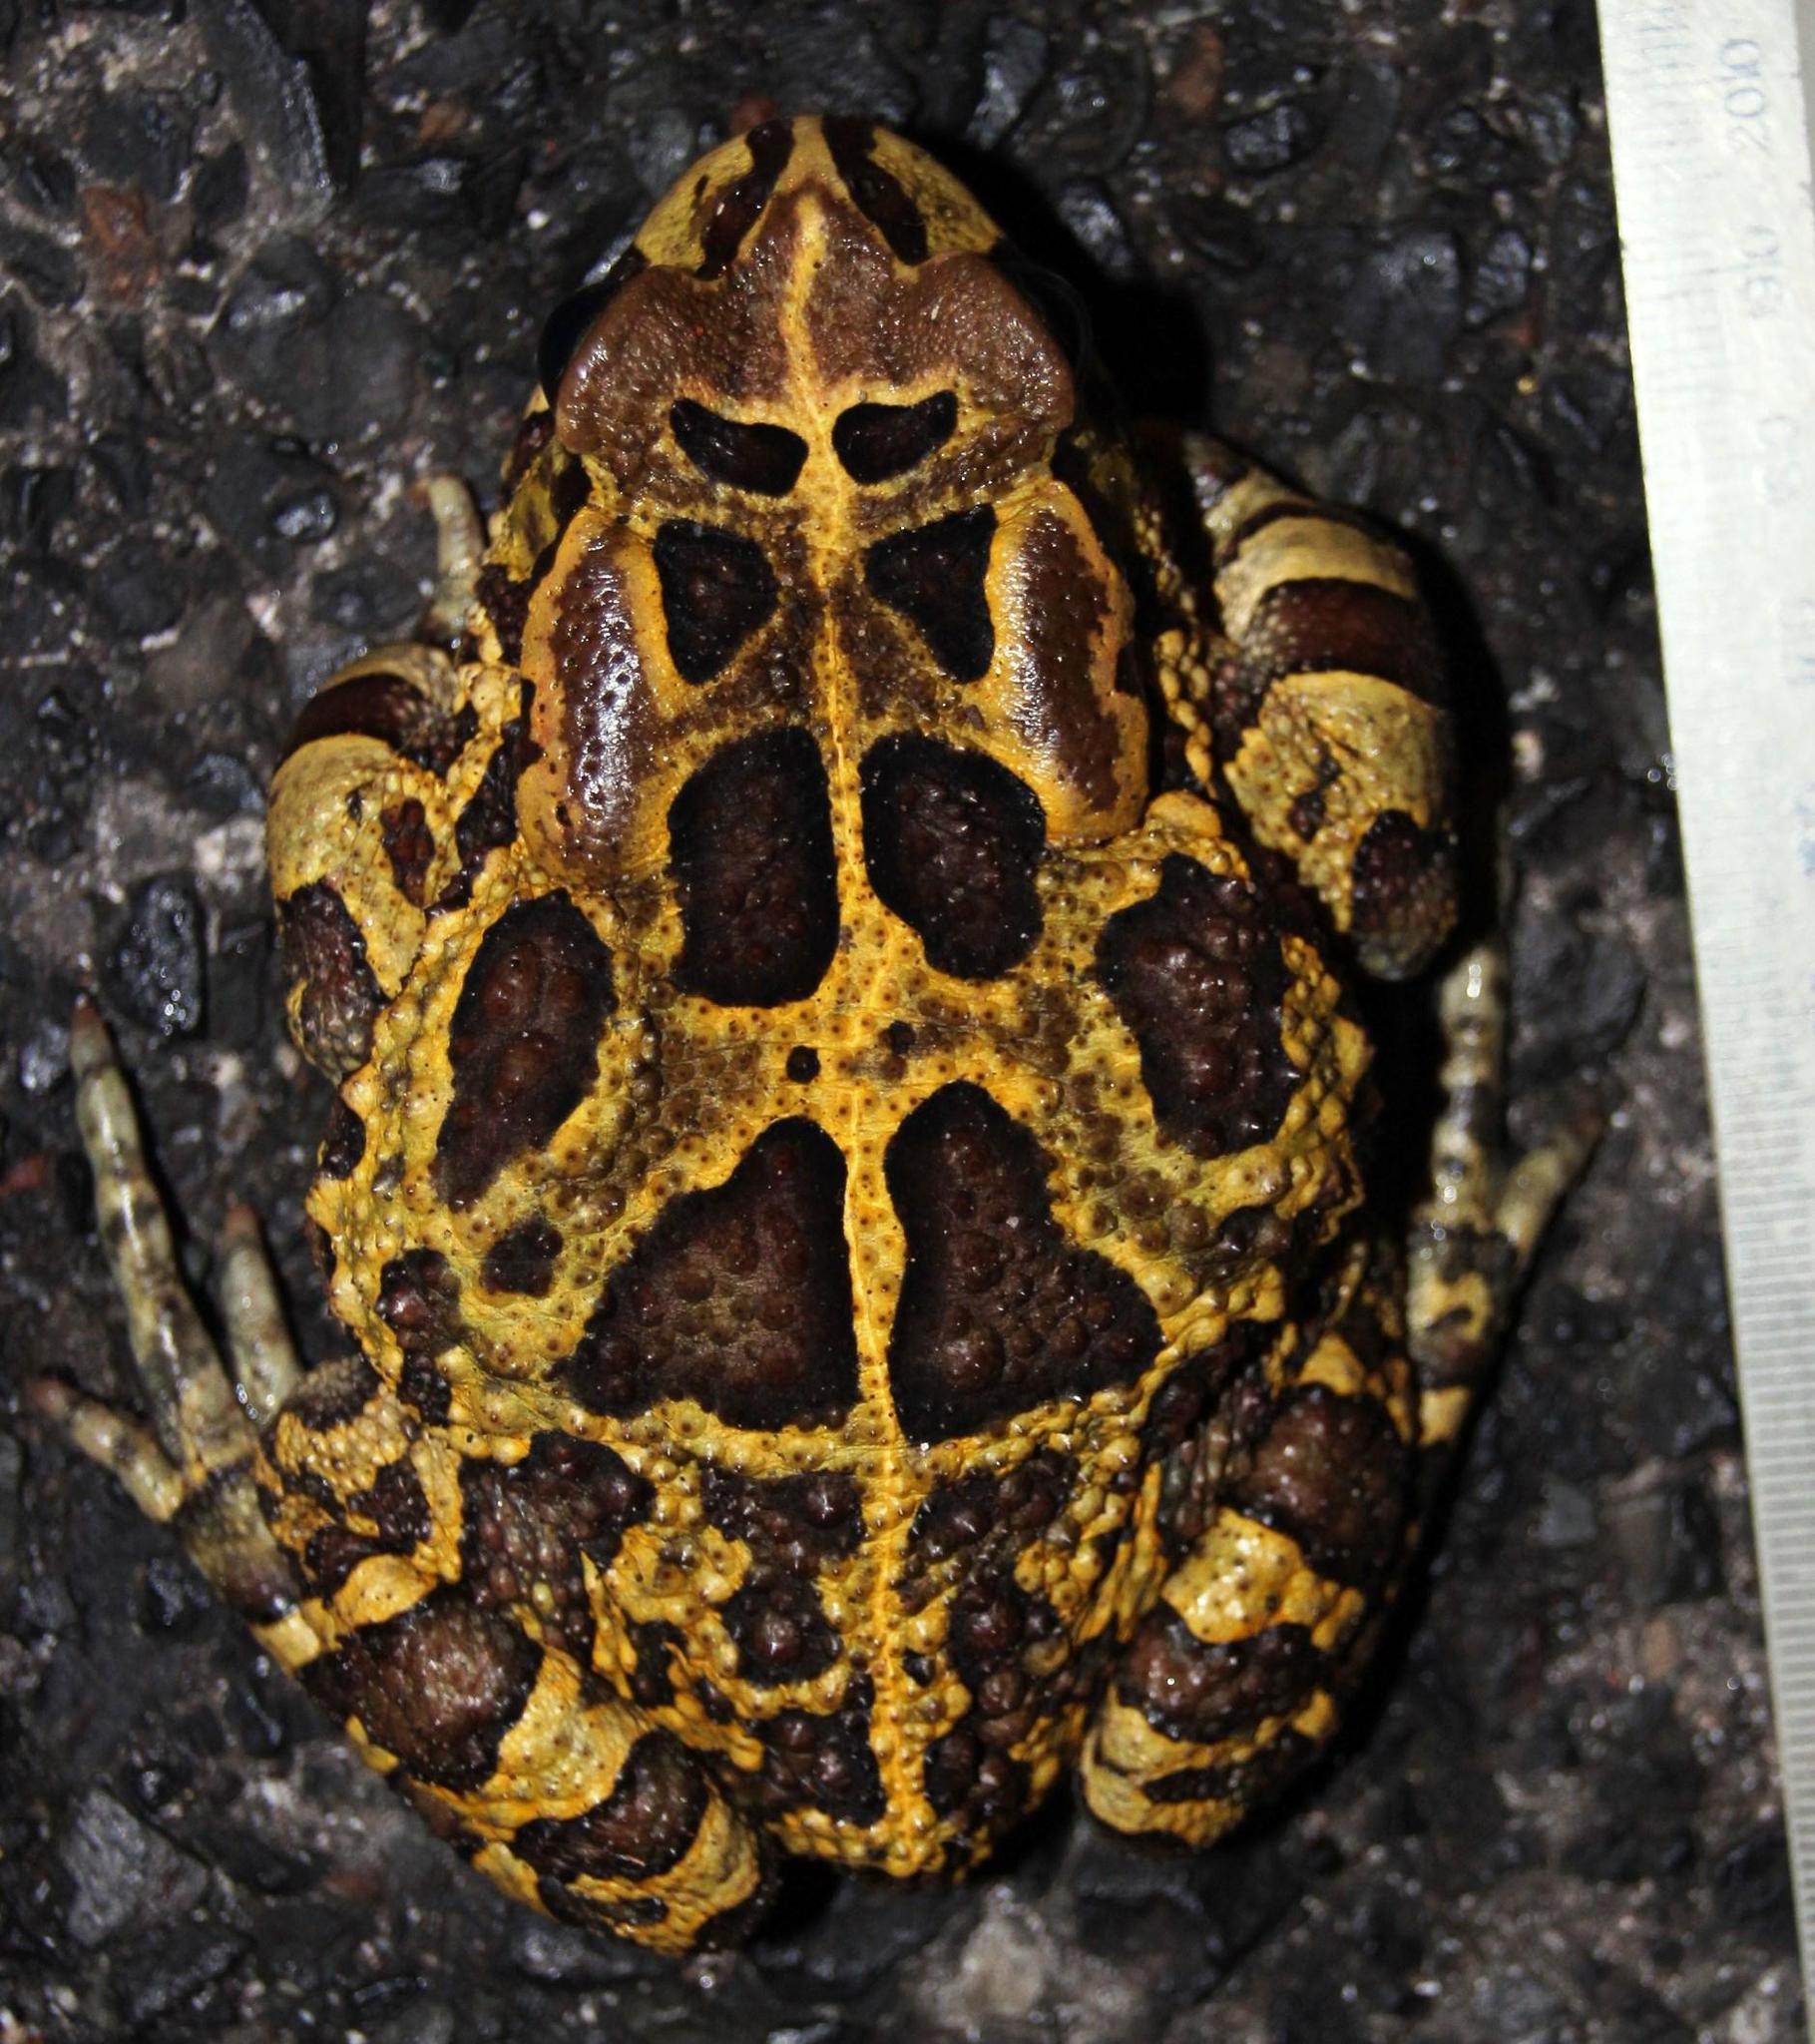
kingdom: Animalia
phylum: Chordata
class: Amphibia
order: Anura
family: Bufonidae
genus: Sclerophrys
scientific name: Sclerophrys pantherina
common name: Panther toad
